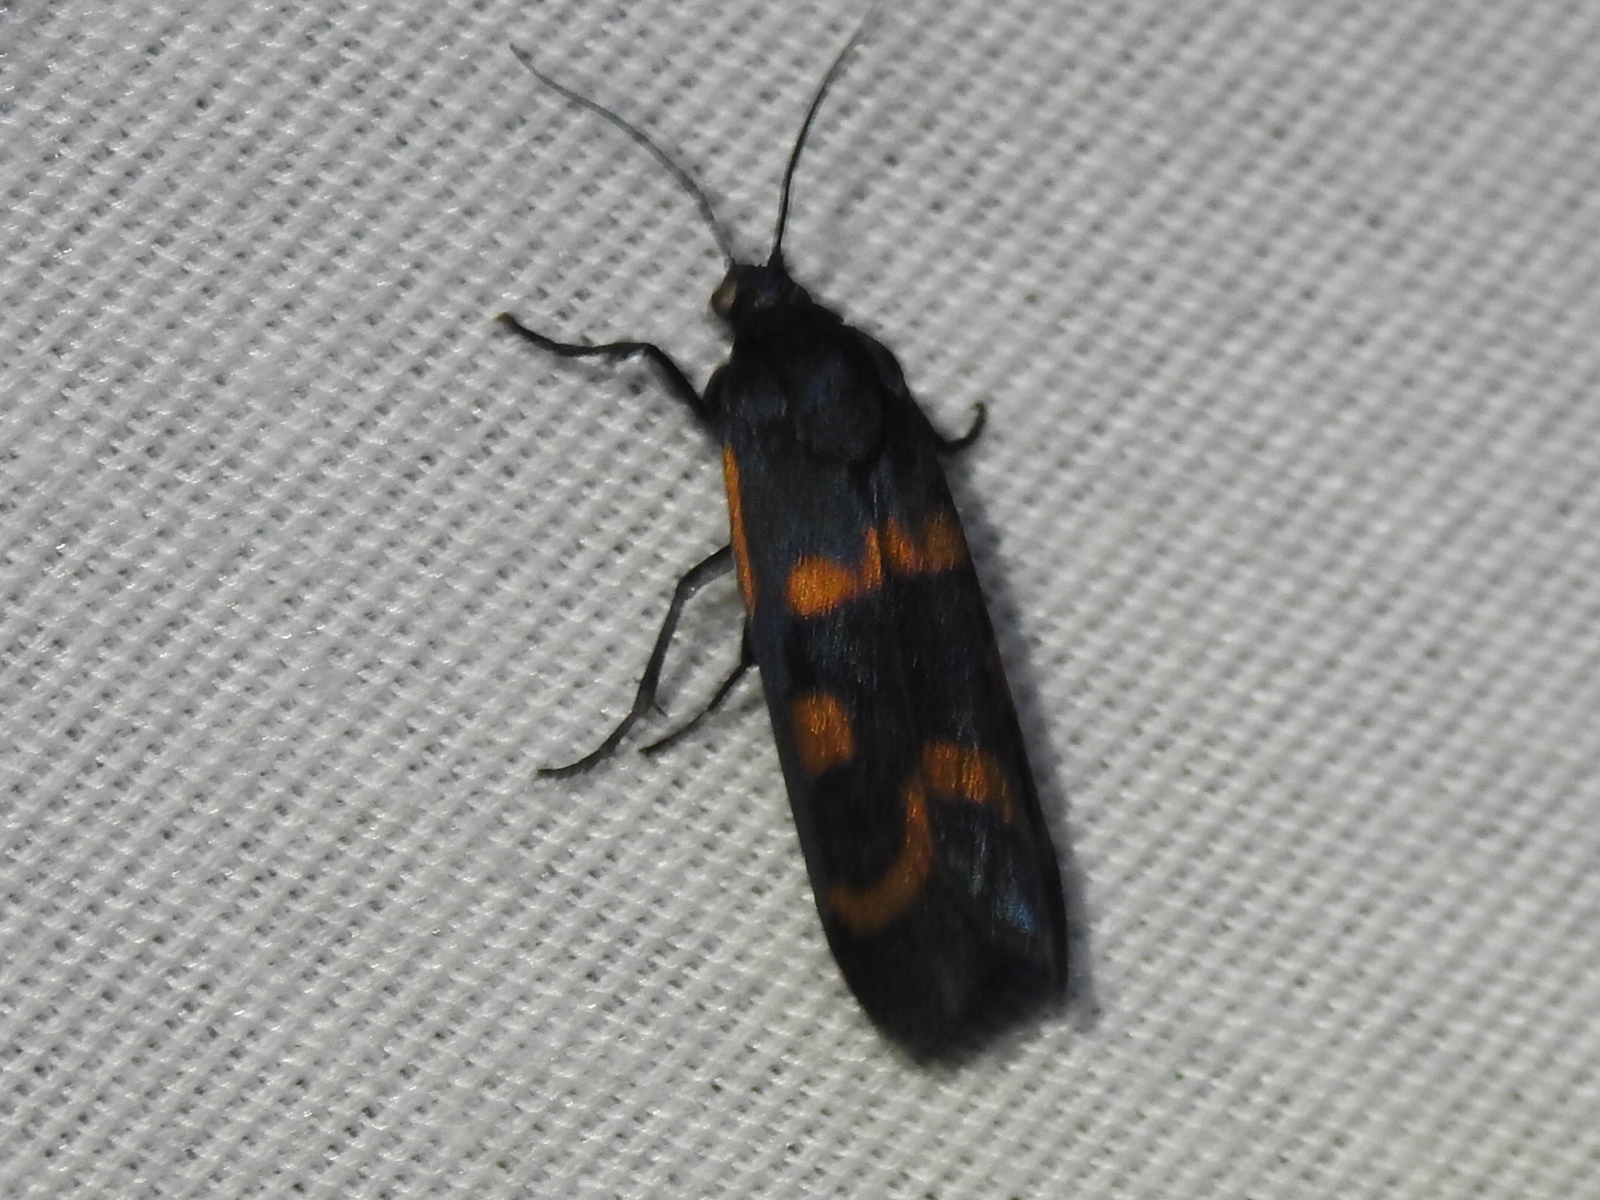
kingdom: Animalia
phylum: Arthropoda
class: Insecta
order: Lepidoptera
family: Noctuidae
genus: Cydosia
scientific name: Cydosia aurivitta
